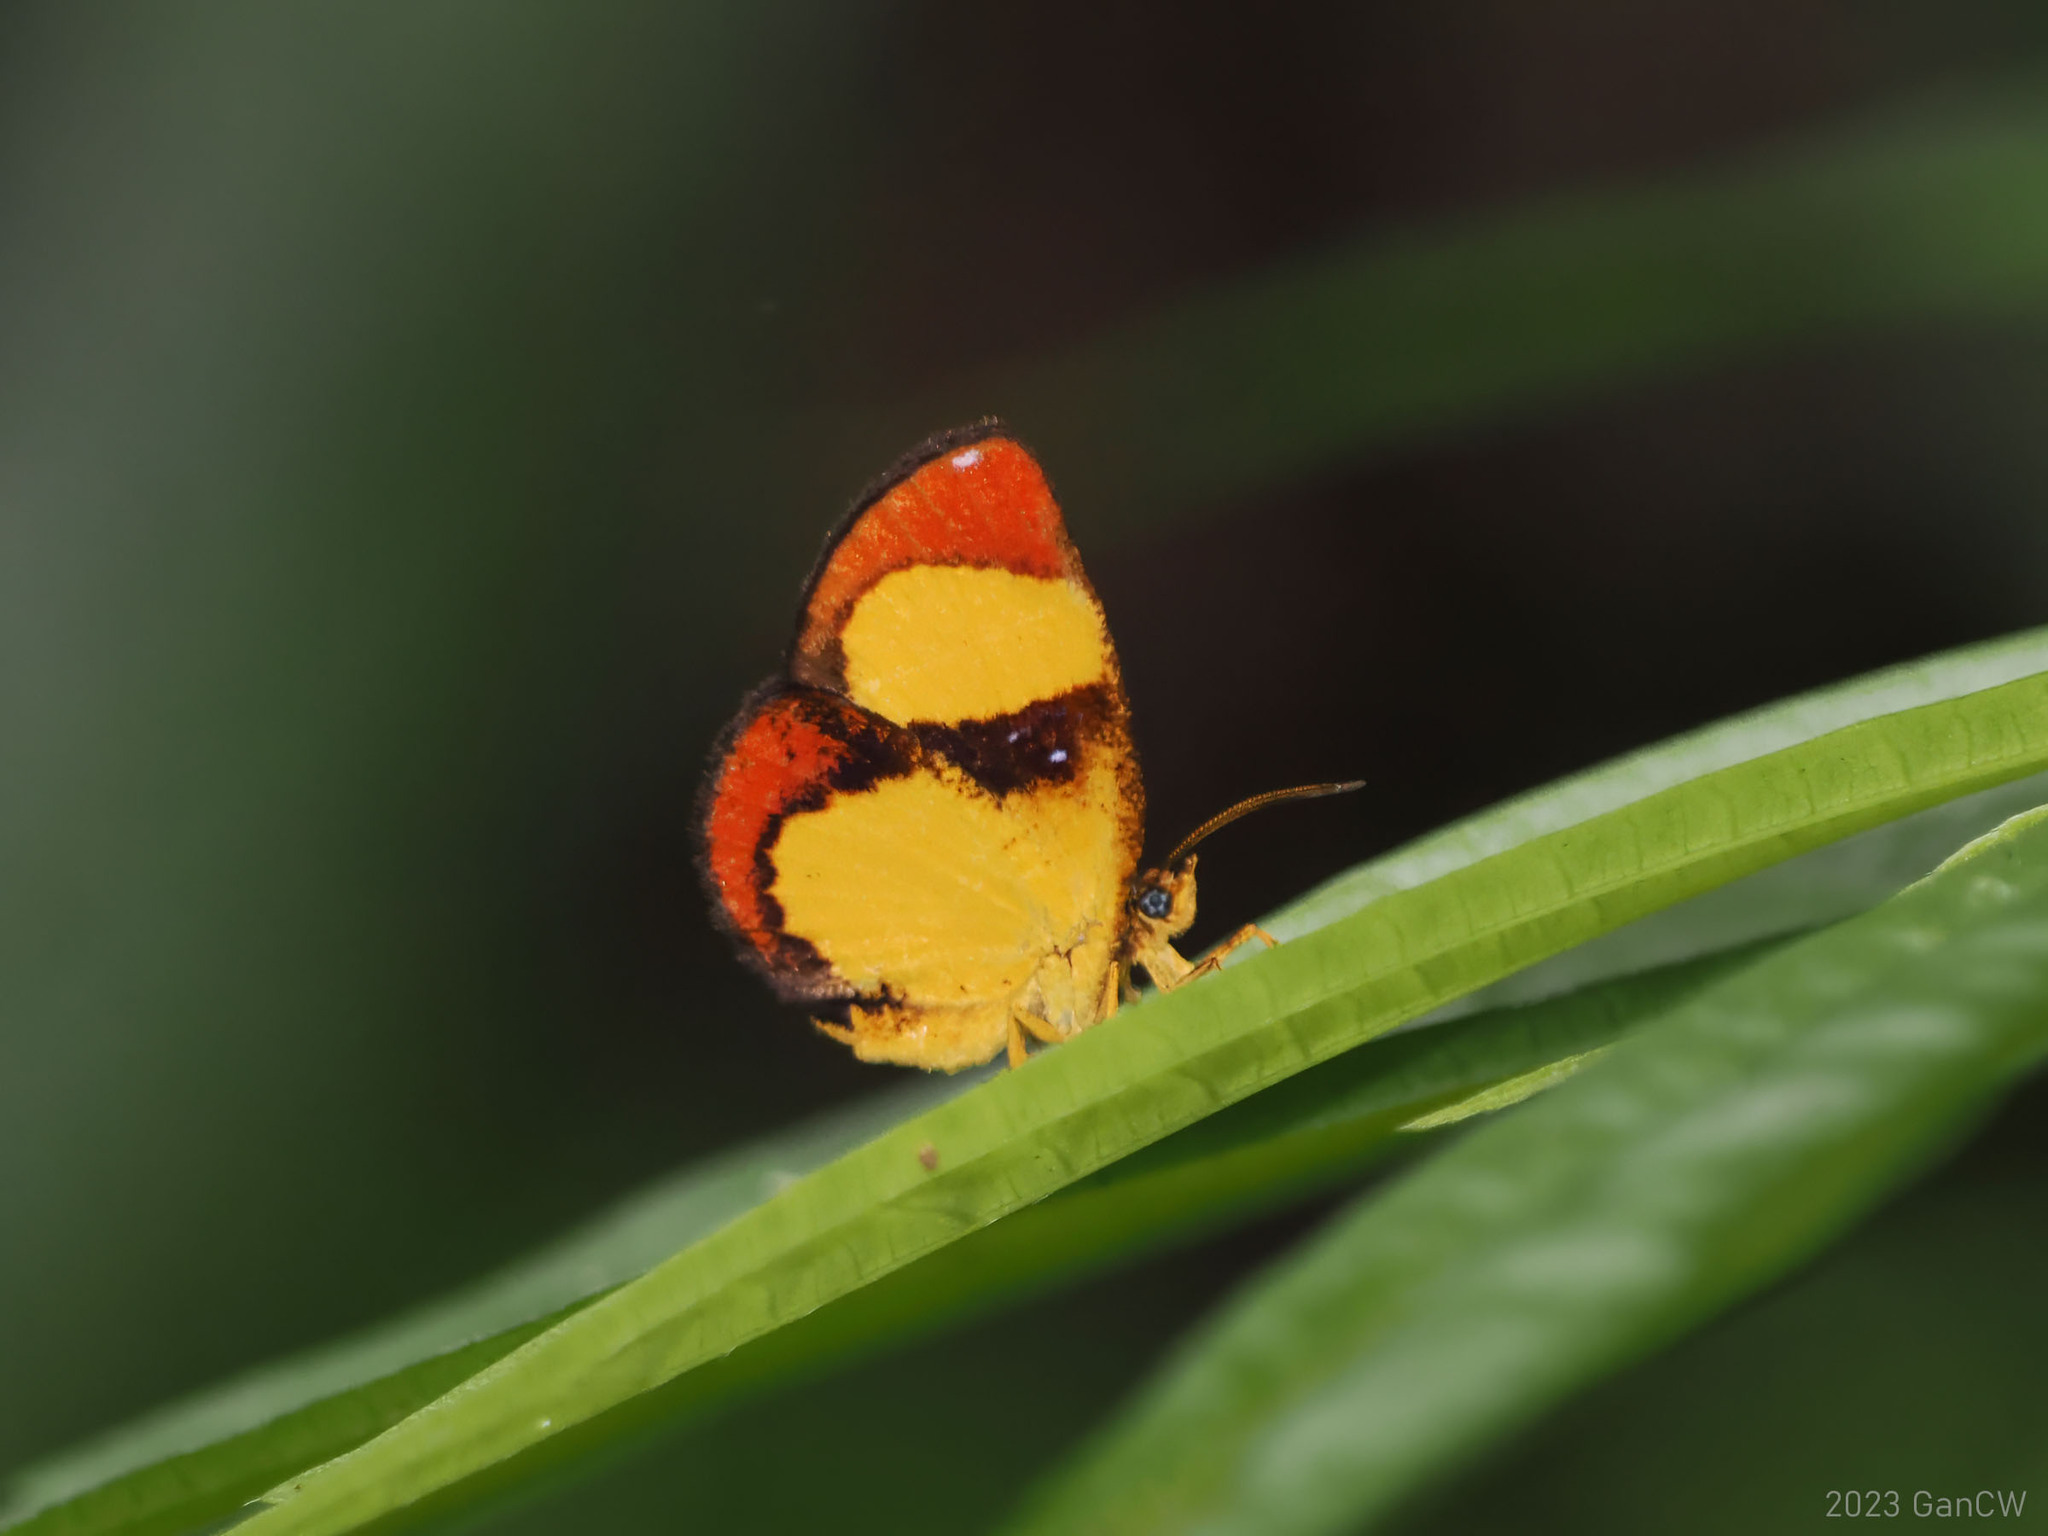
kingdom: Animalia
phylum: Arthropoda
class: Insecta
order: Lepidoptera
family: Callidulidae
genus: Callidula
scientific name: Callidula versicolor
